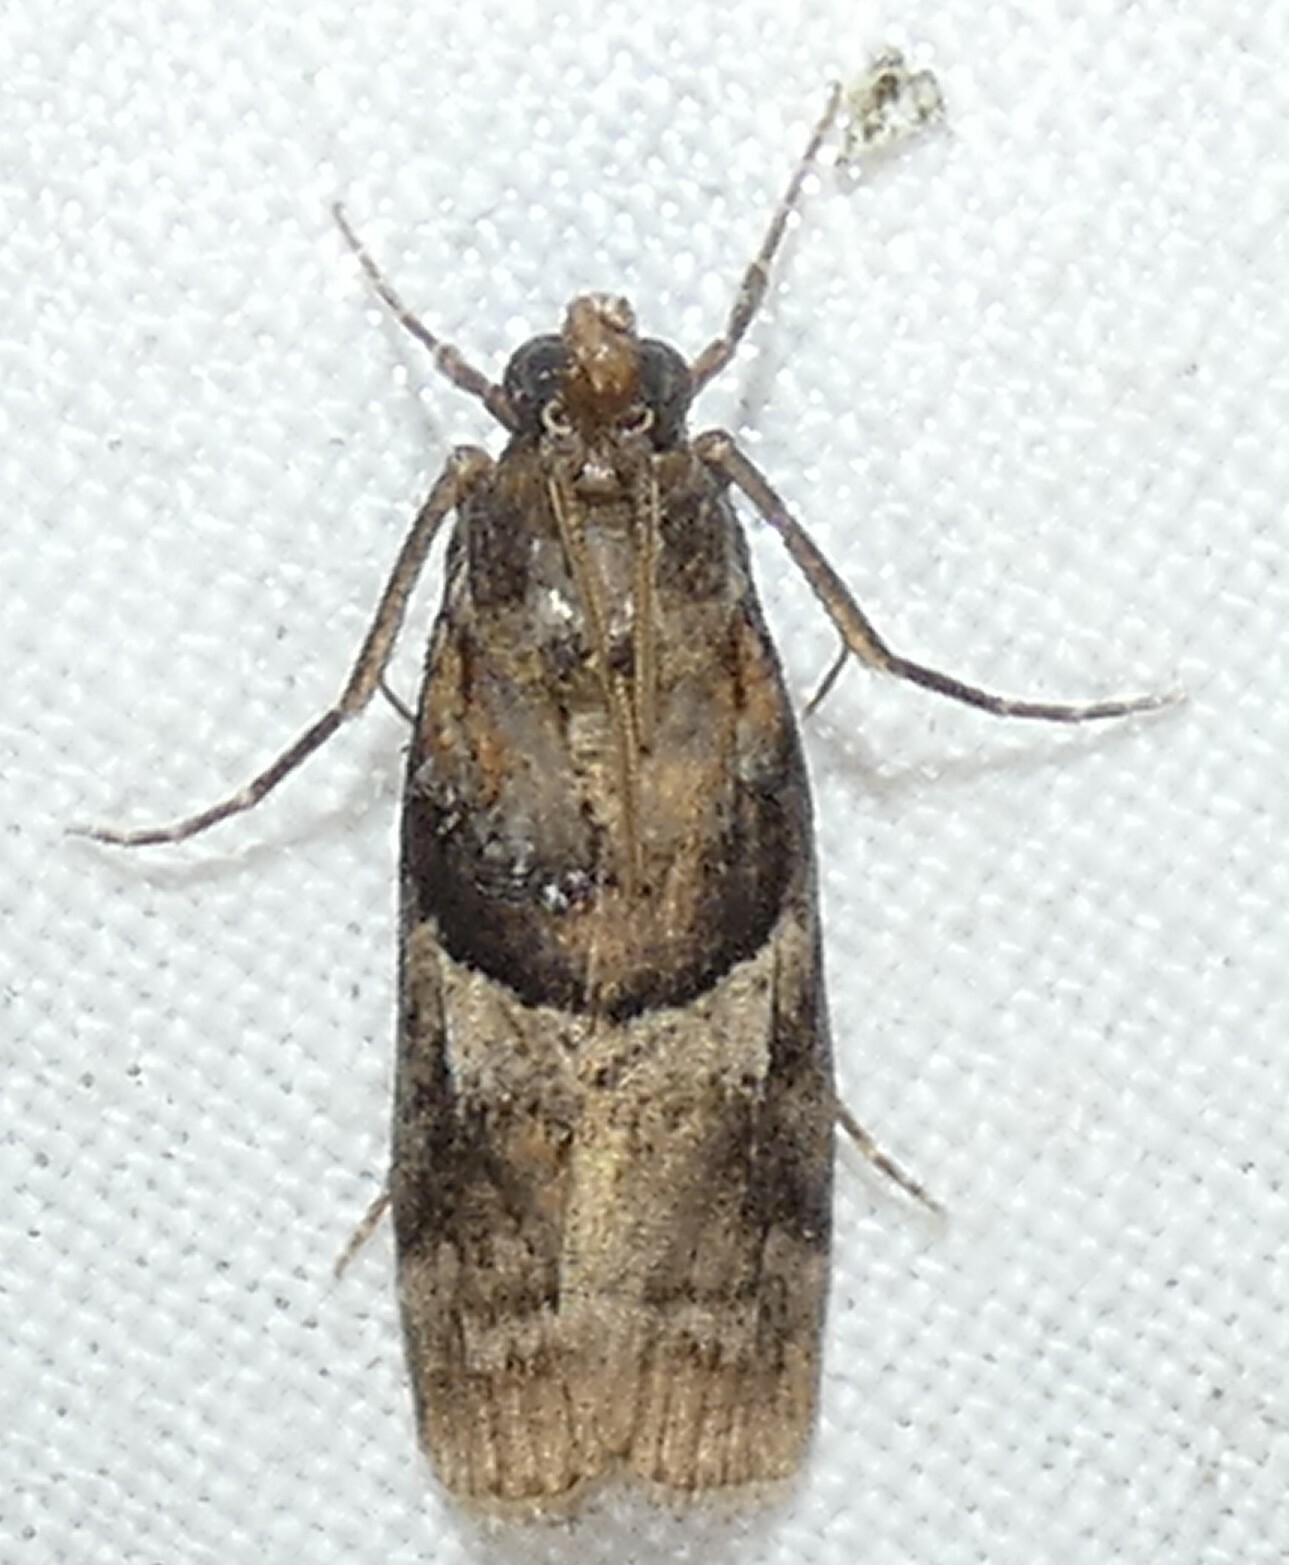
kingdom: Animalia
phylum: Arthropoda
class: Insecta
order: Lepidoptera
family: Pyralidae
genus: Dioryctria
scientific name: Dioryctria clarioralis
